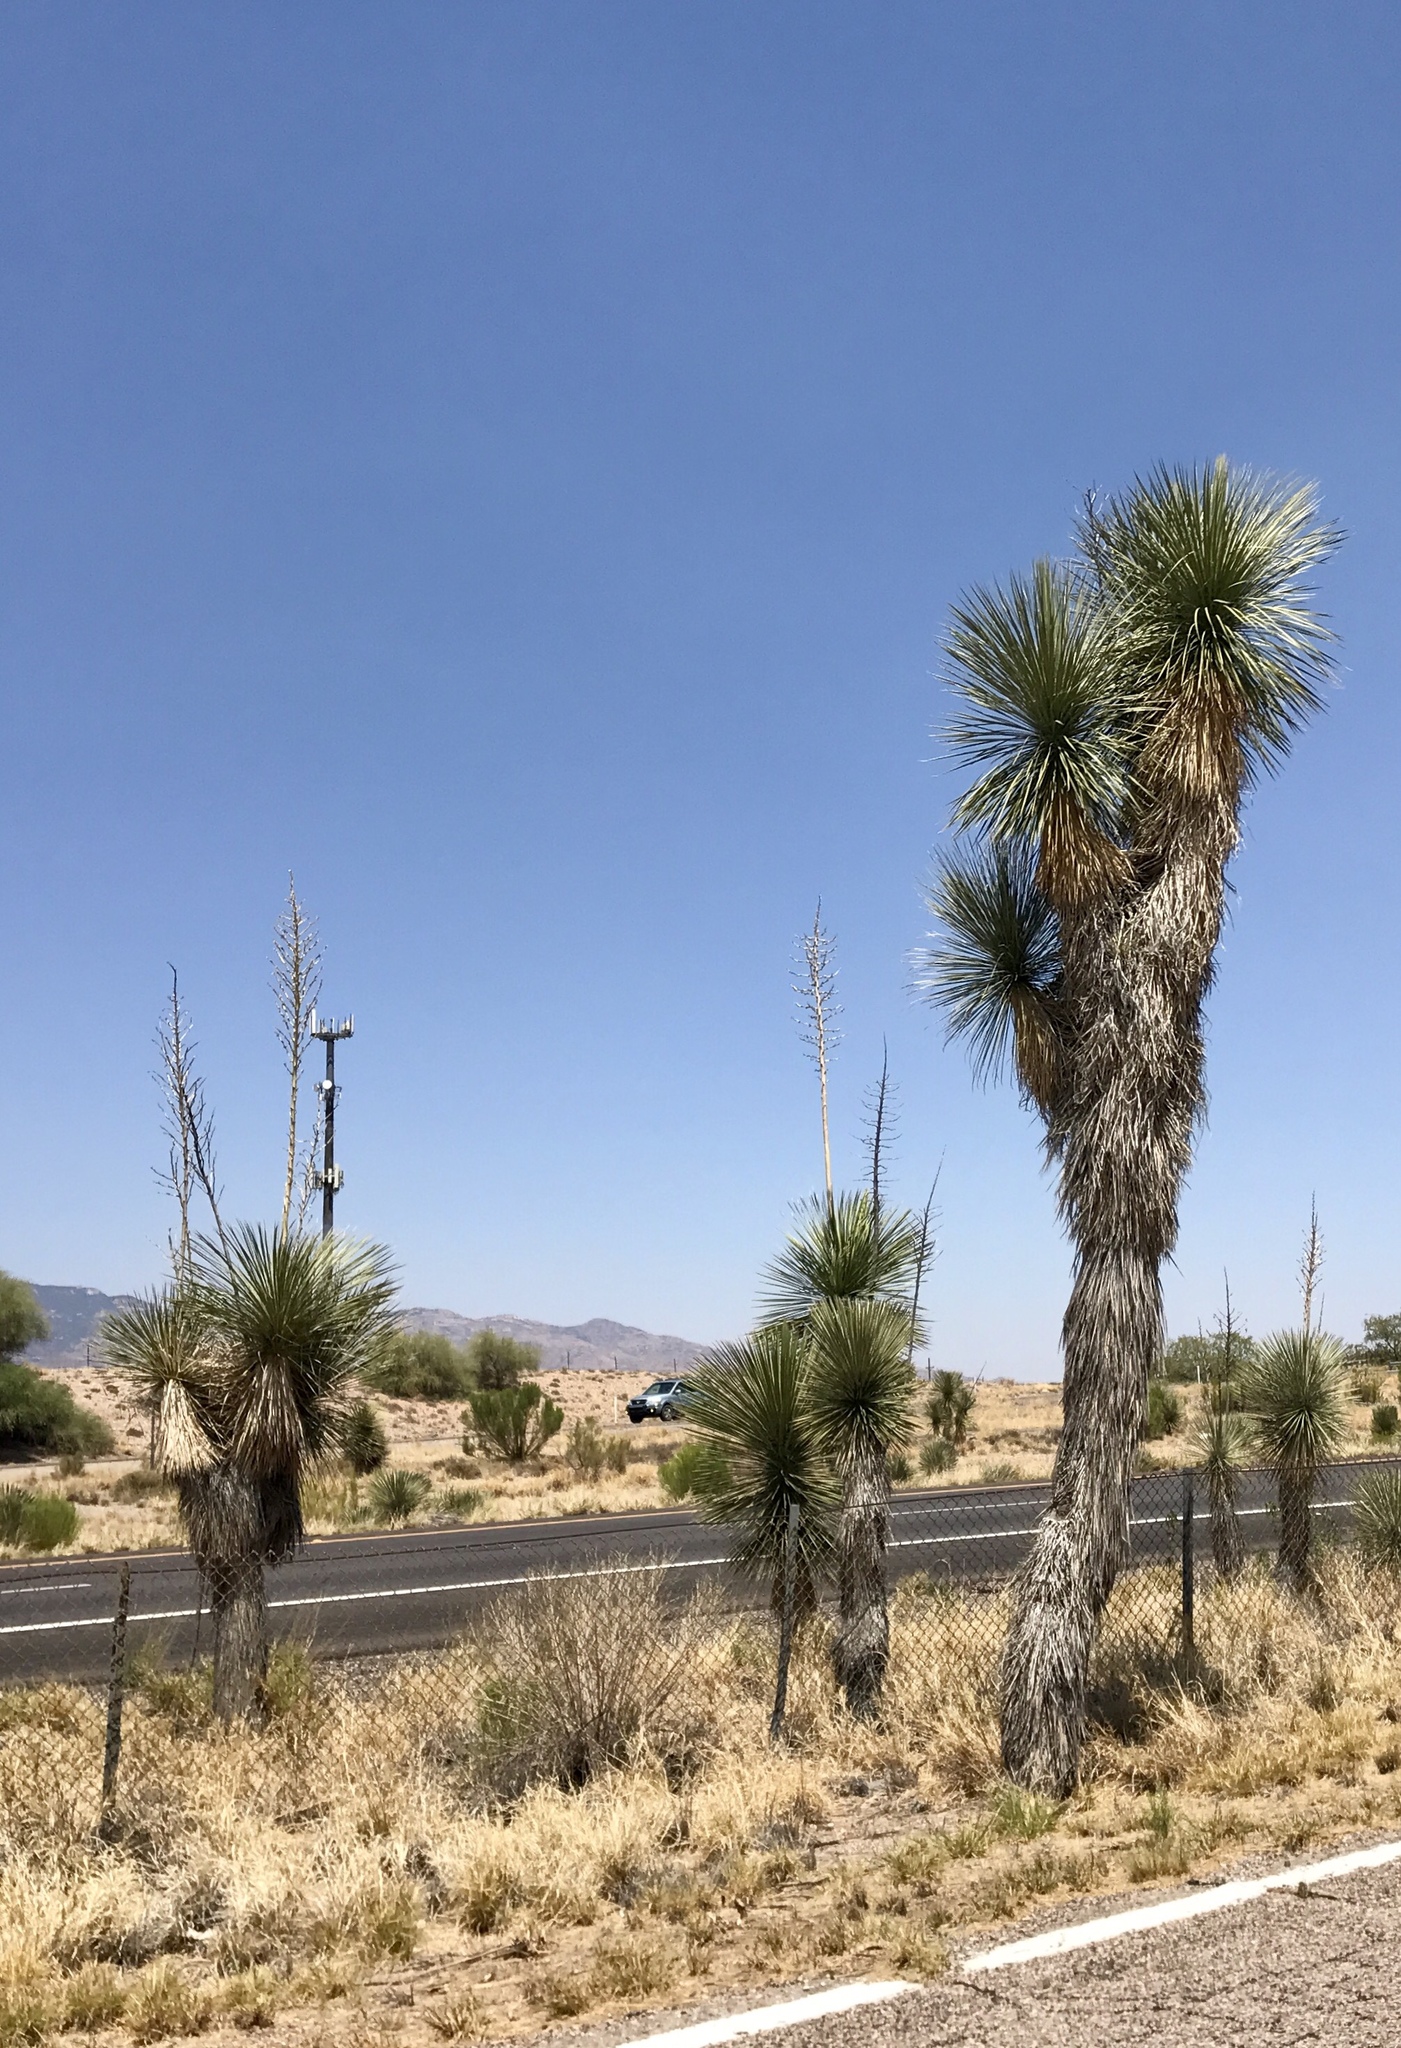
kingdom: Plantae
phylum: Tracheophyta
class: Liliopsida
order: Asparagales
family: Asparagaceae
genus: Yucca
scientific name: Yucca elata
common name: Palmella
